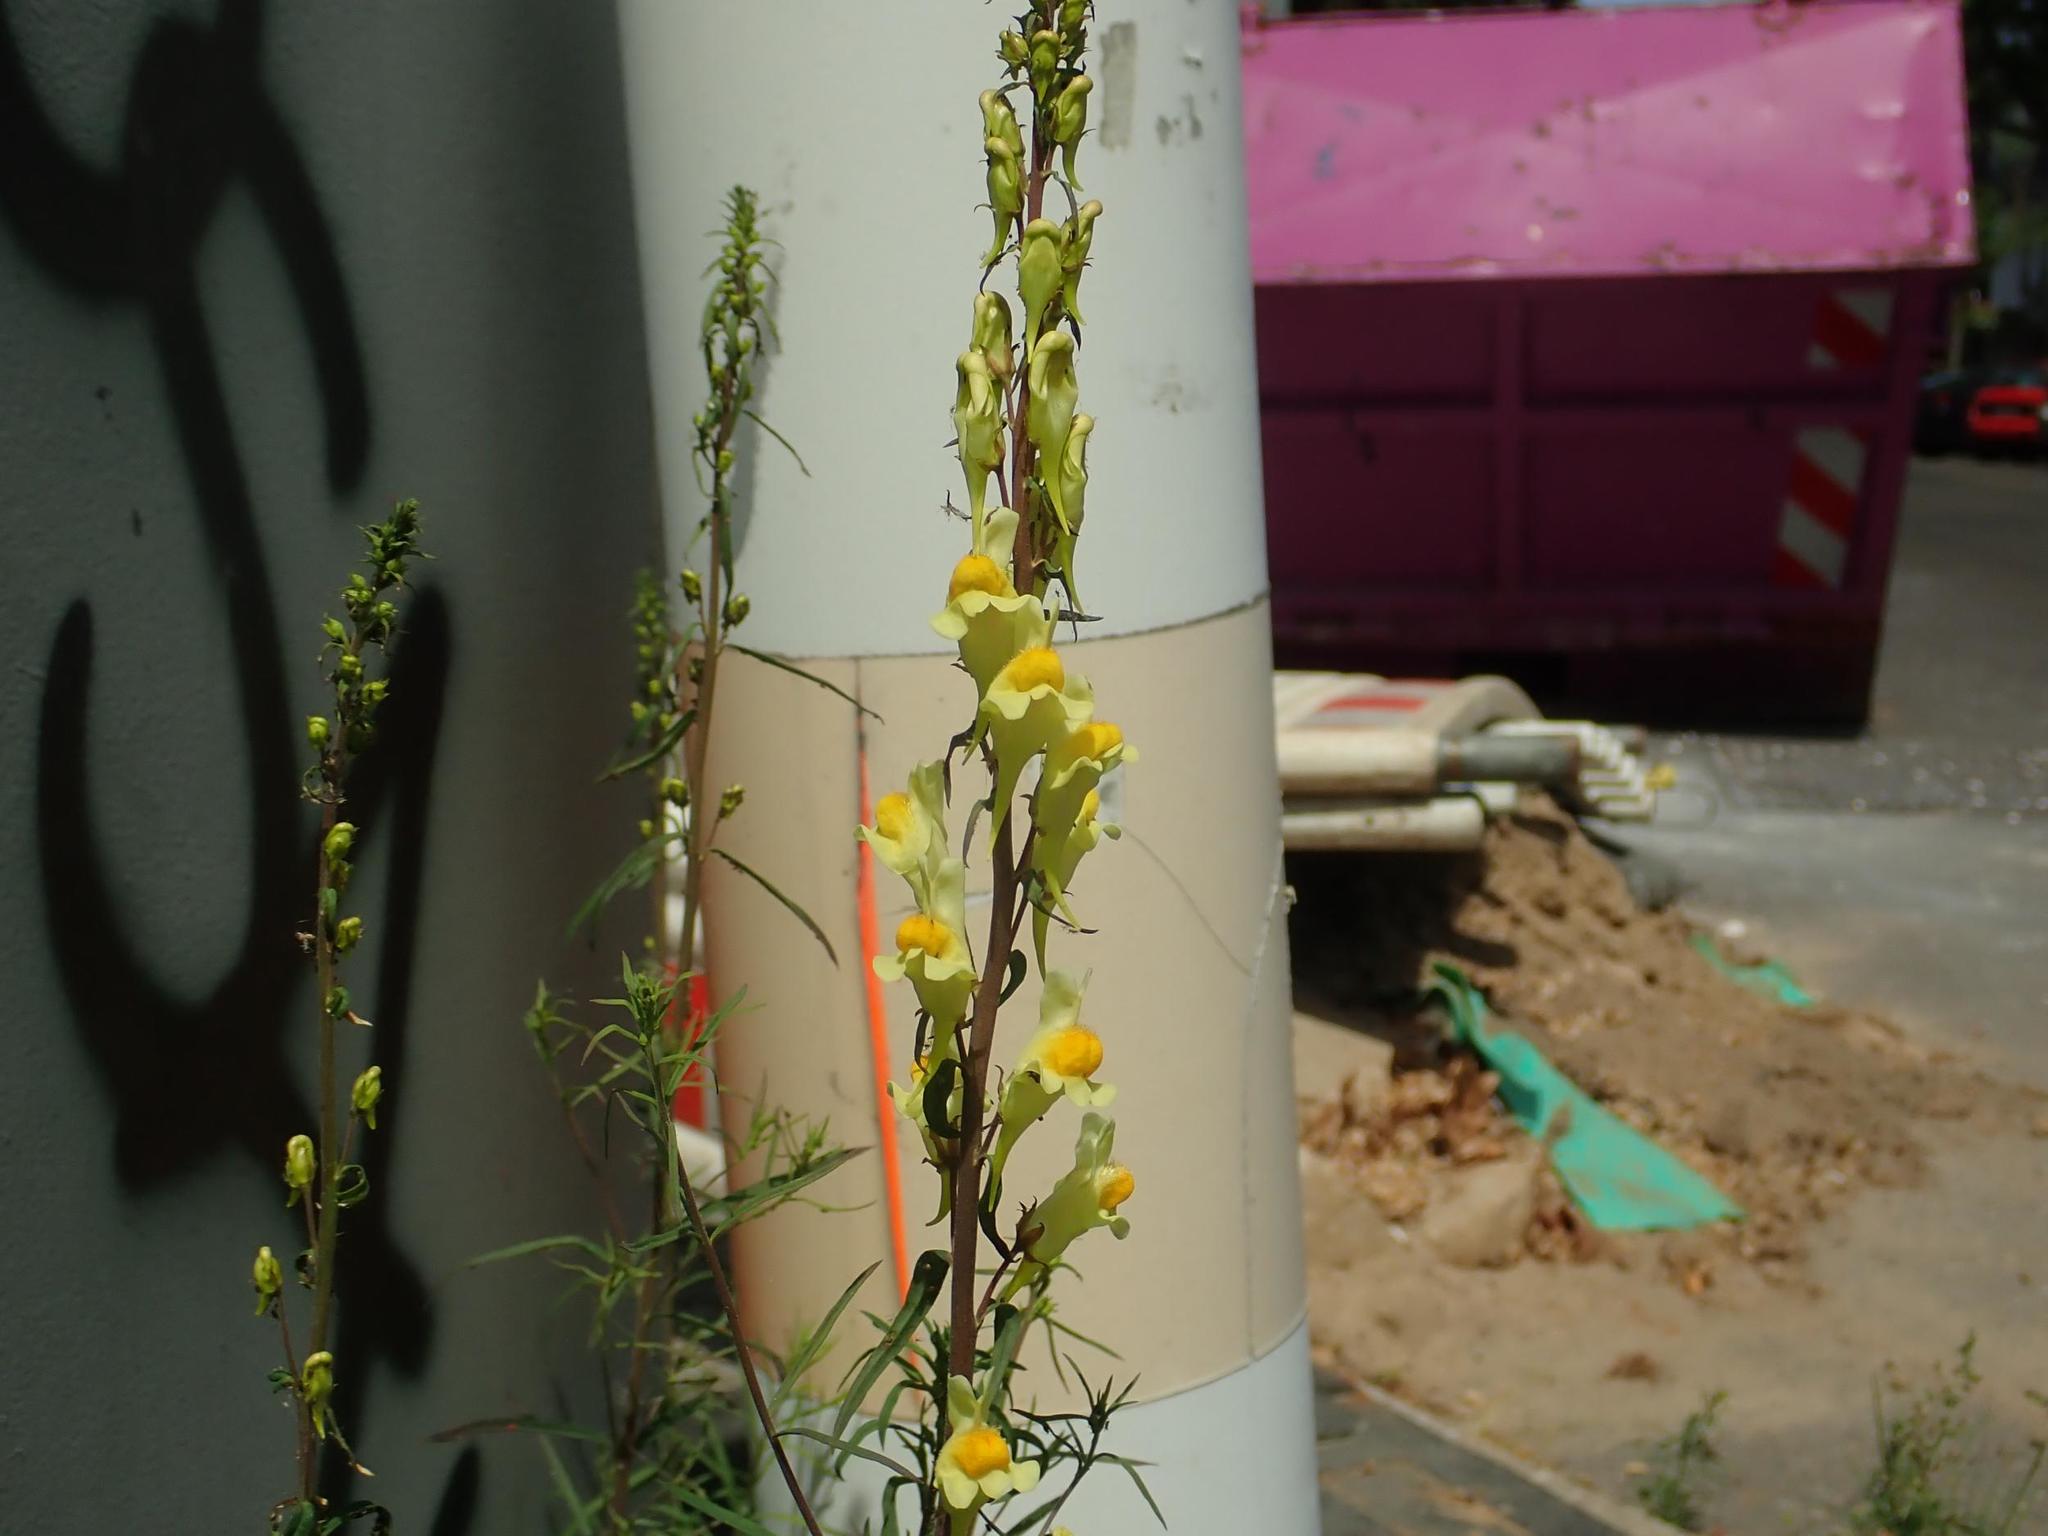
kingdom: Plantae
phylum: Tracheophyta
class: Magnoliopsida
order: Lamiales
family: Plantaginaceae
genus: Linaria
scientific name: Linaria vulgaris
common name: Butter and eggs
